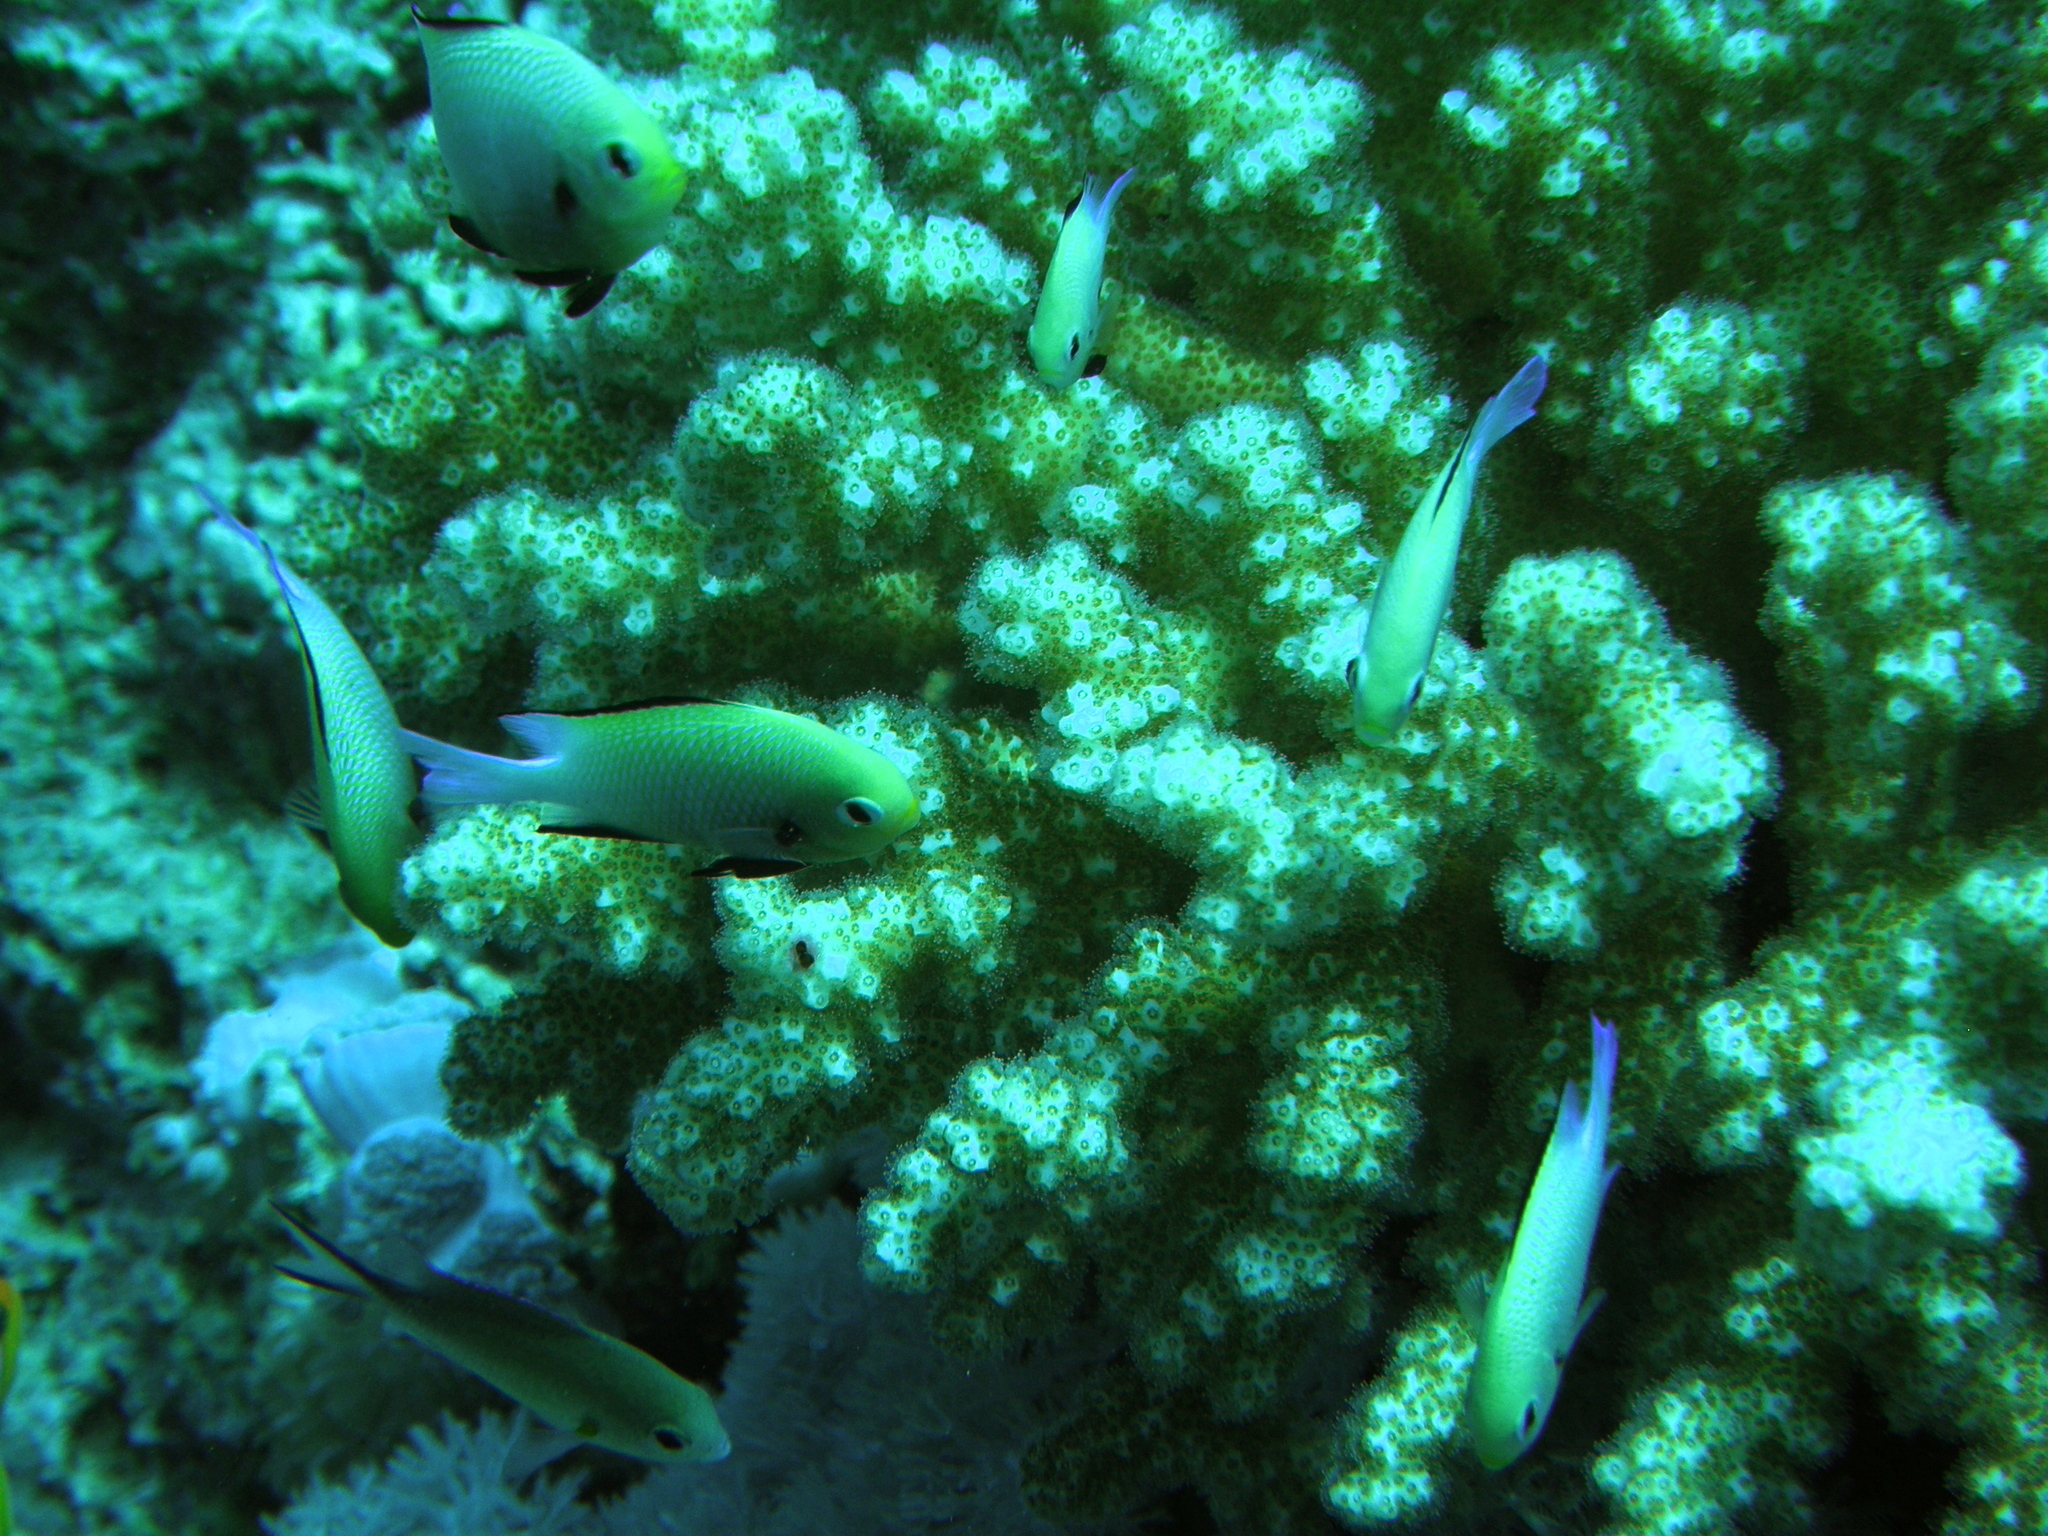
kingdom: Animalia
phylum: Chordata
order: Perciformes
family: Pomacentridae
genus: Dascyllus
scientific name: Dascyllus marginatus
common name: Red sea dascyllus
